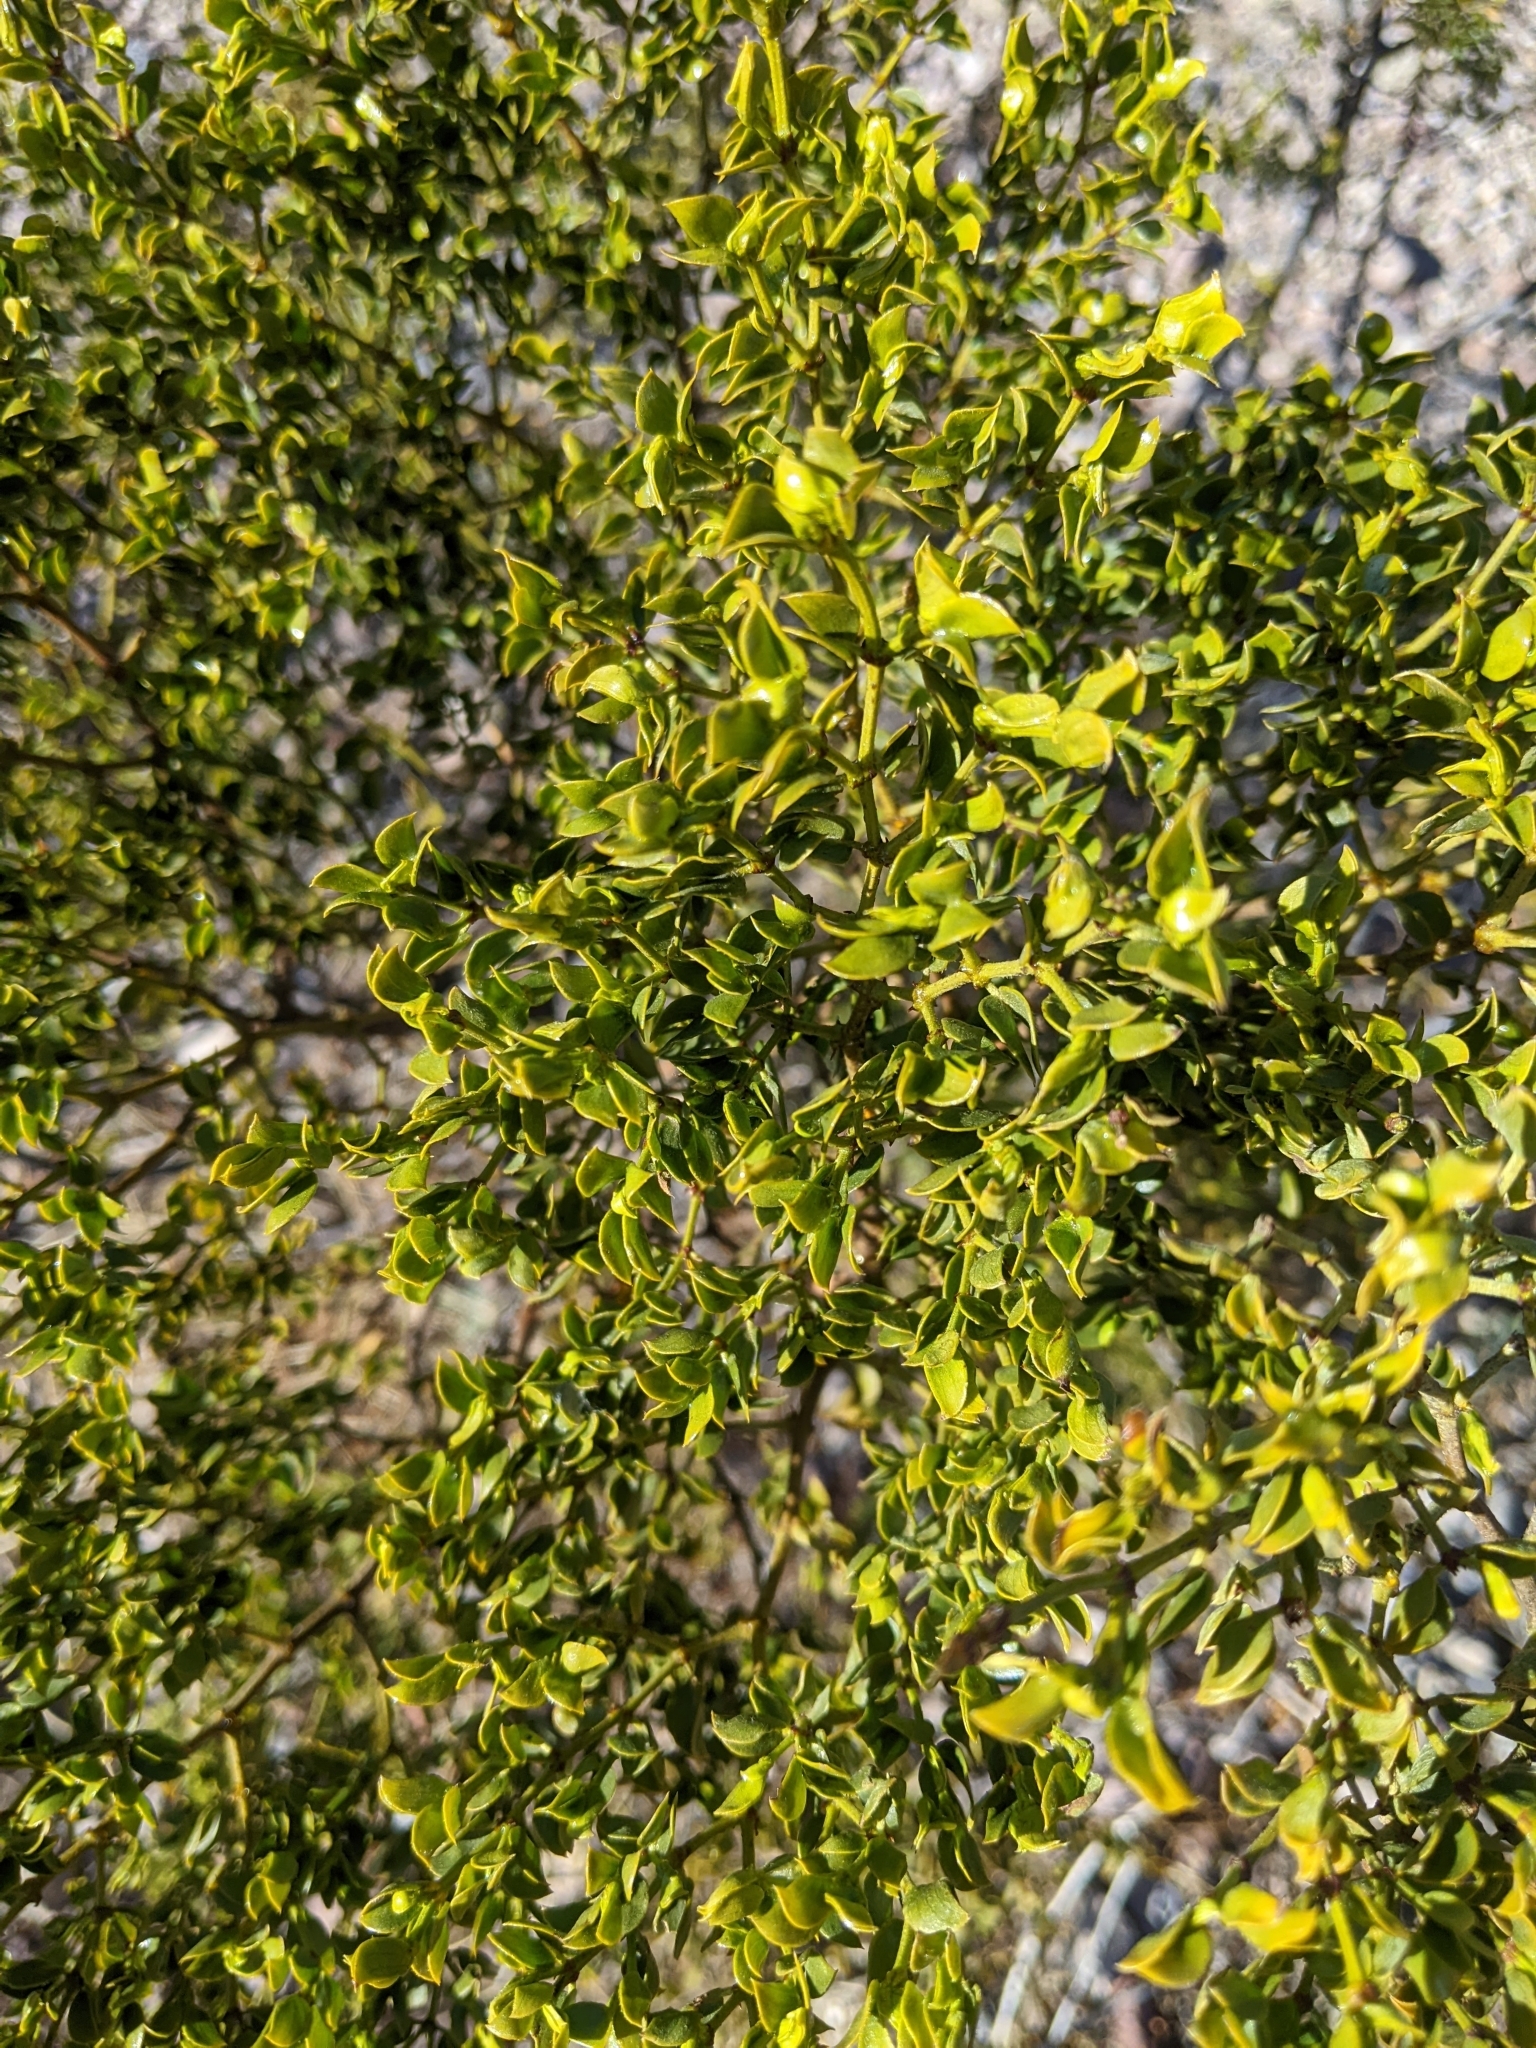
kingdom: Plantae
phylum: Tracheophyta
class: Magnoliopsida
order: Zygophyllales
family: Zygophyllaceae
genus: Larrea
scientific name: Larrea tridentata
